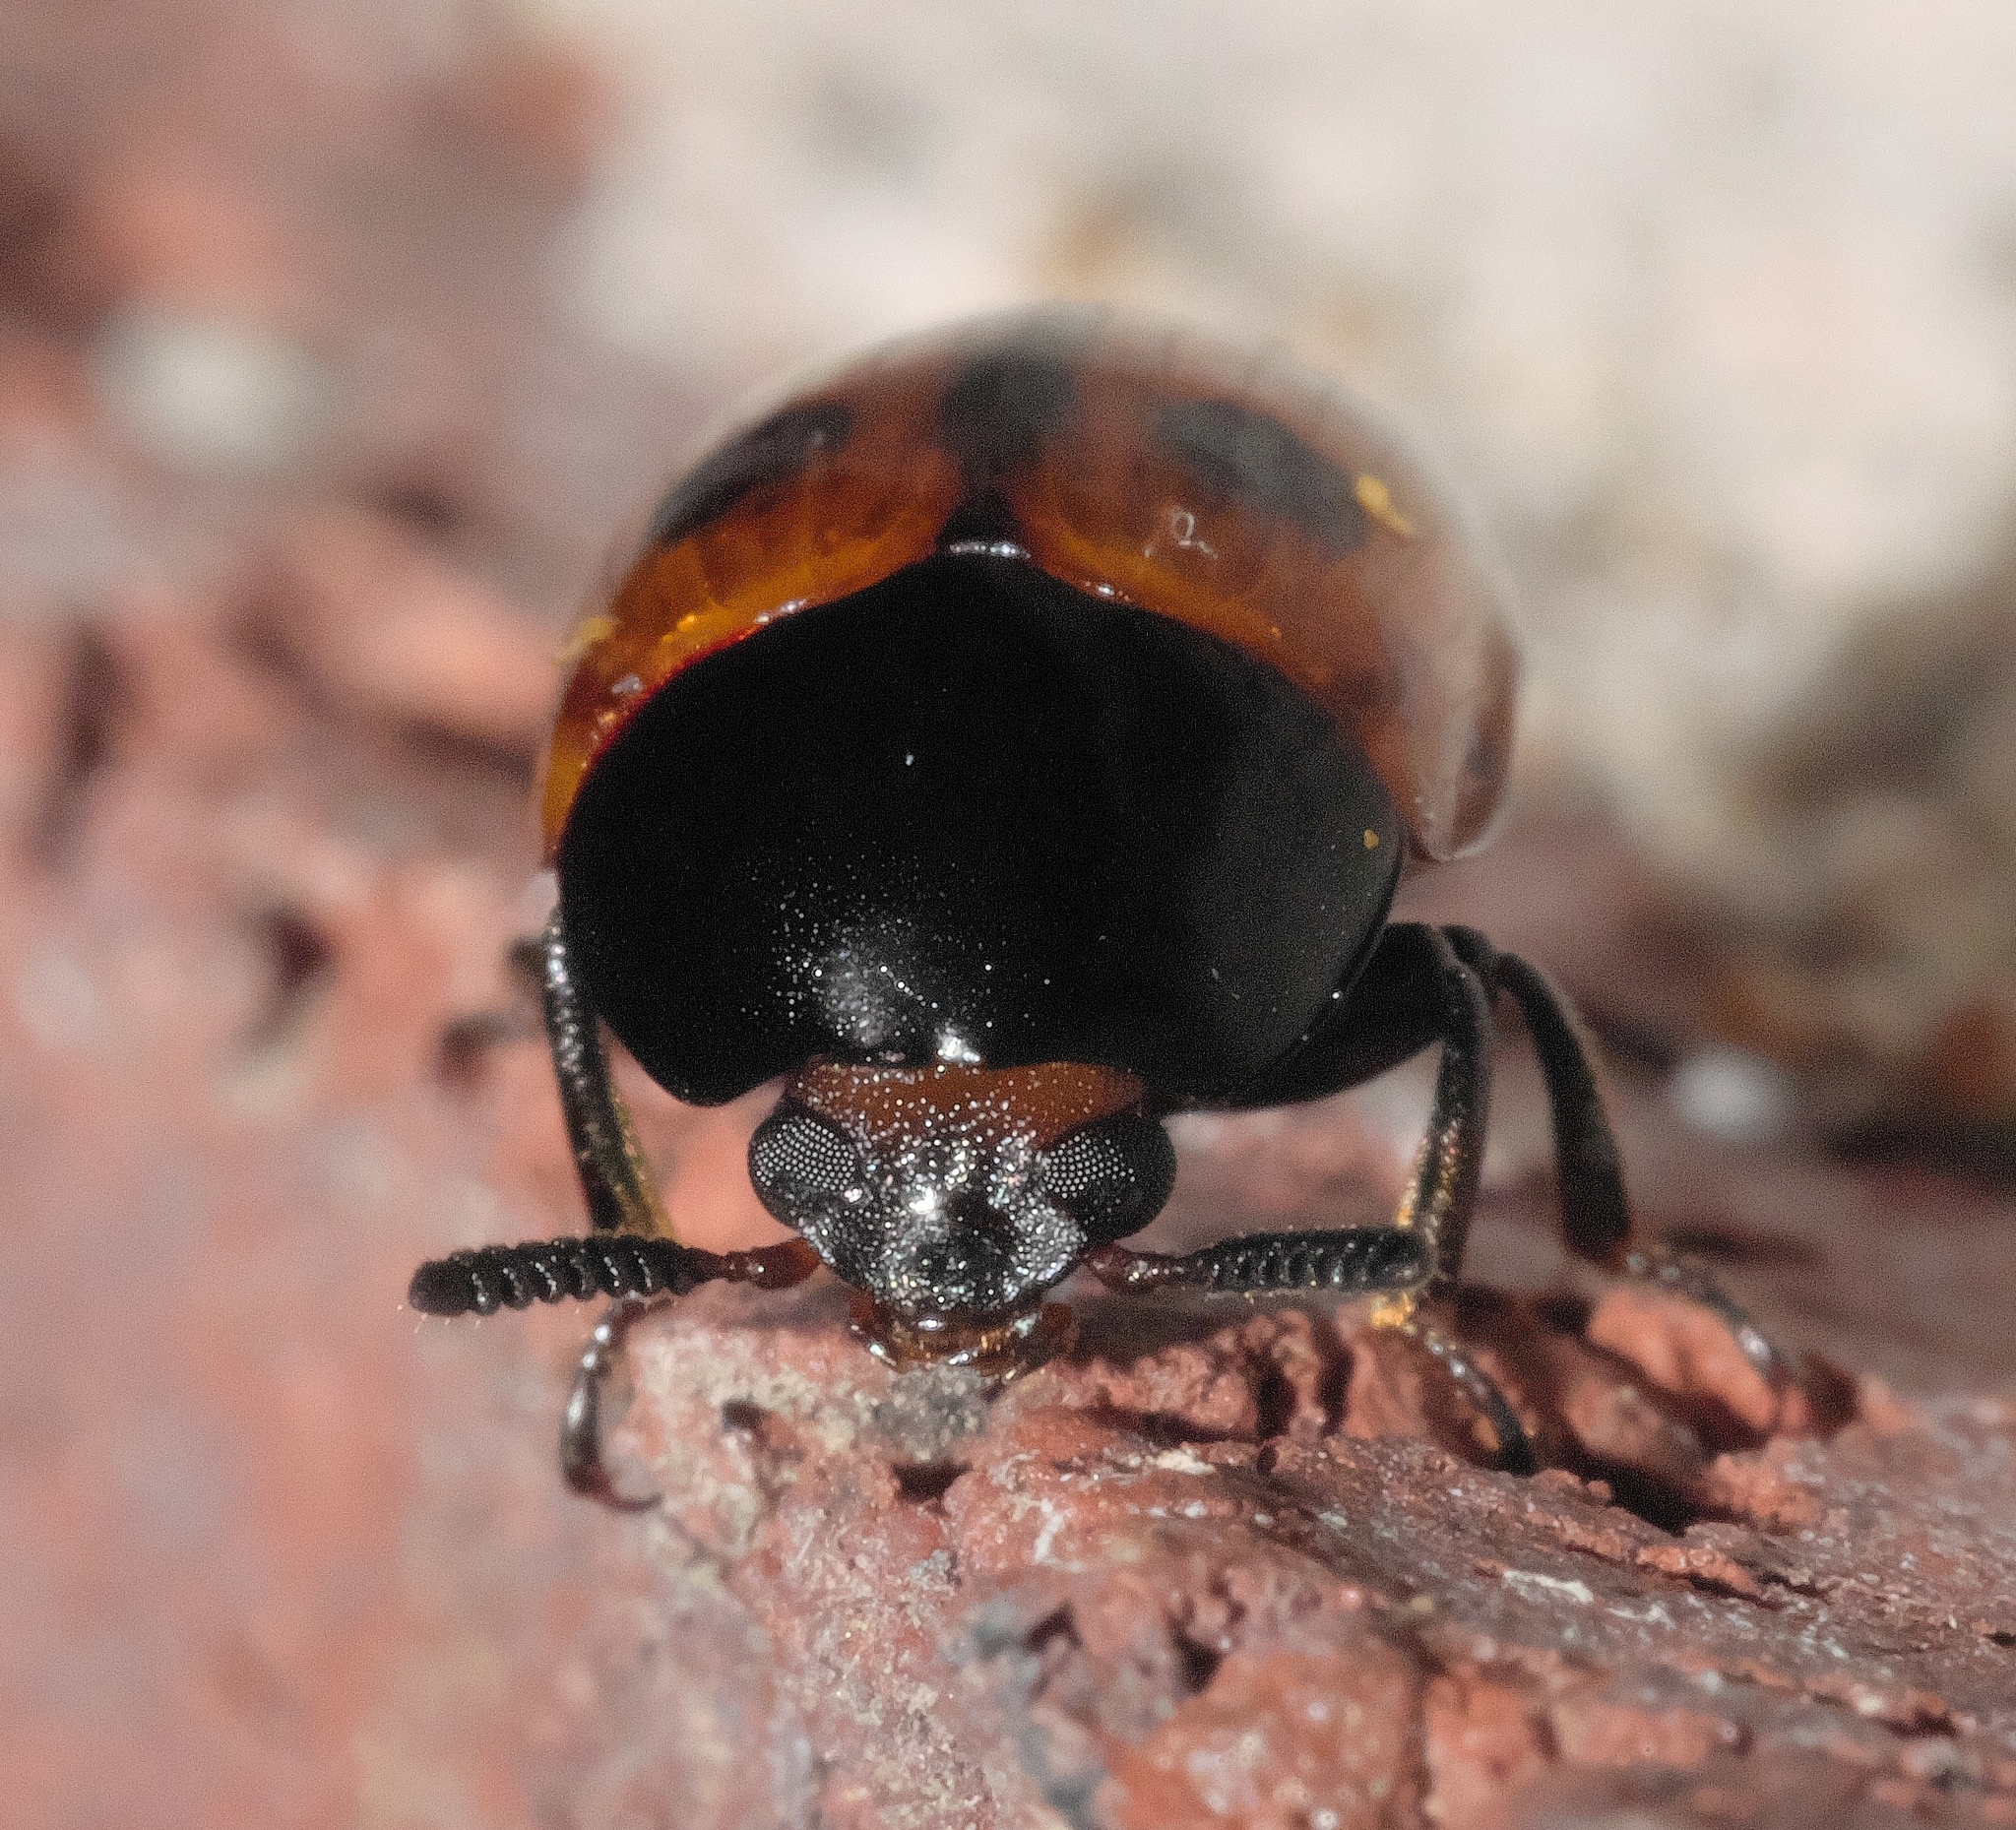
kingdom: Animalia
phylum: Arthropoda
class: Insecta
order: Coleoptera
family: Tenebrionidae
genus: Diaperis
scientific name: Diaperis maculata
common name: Darkling beetle
